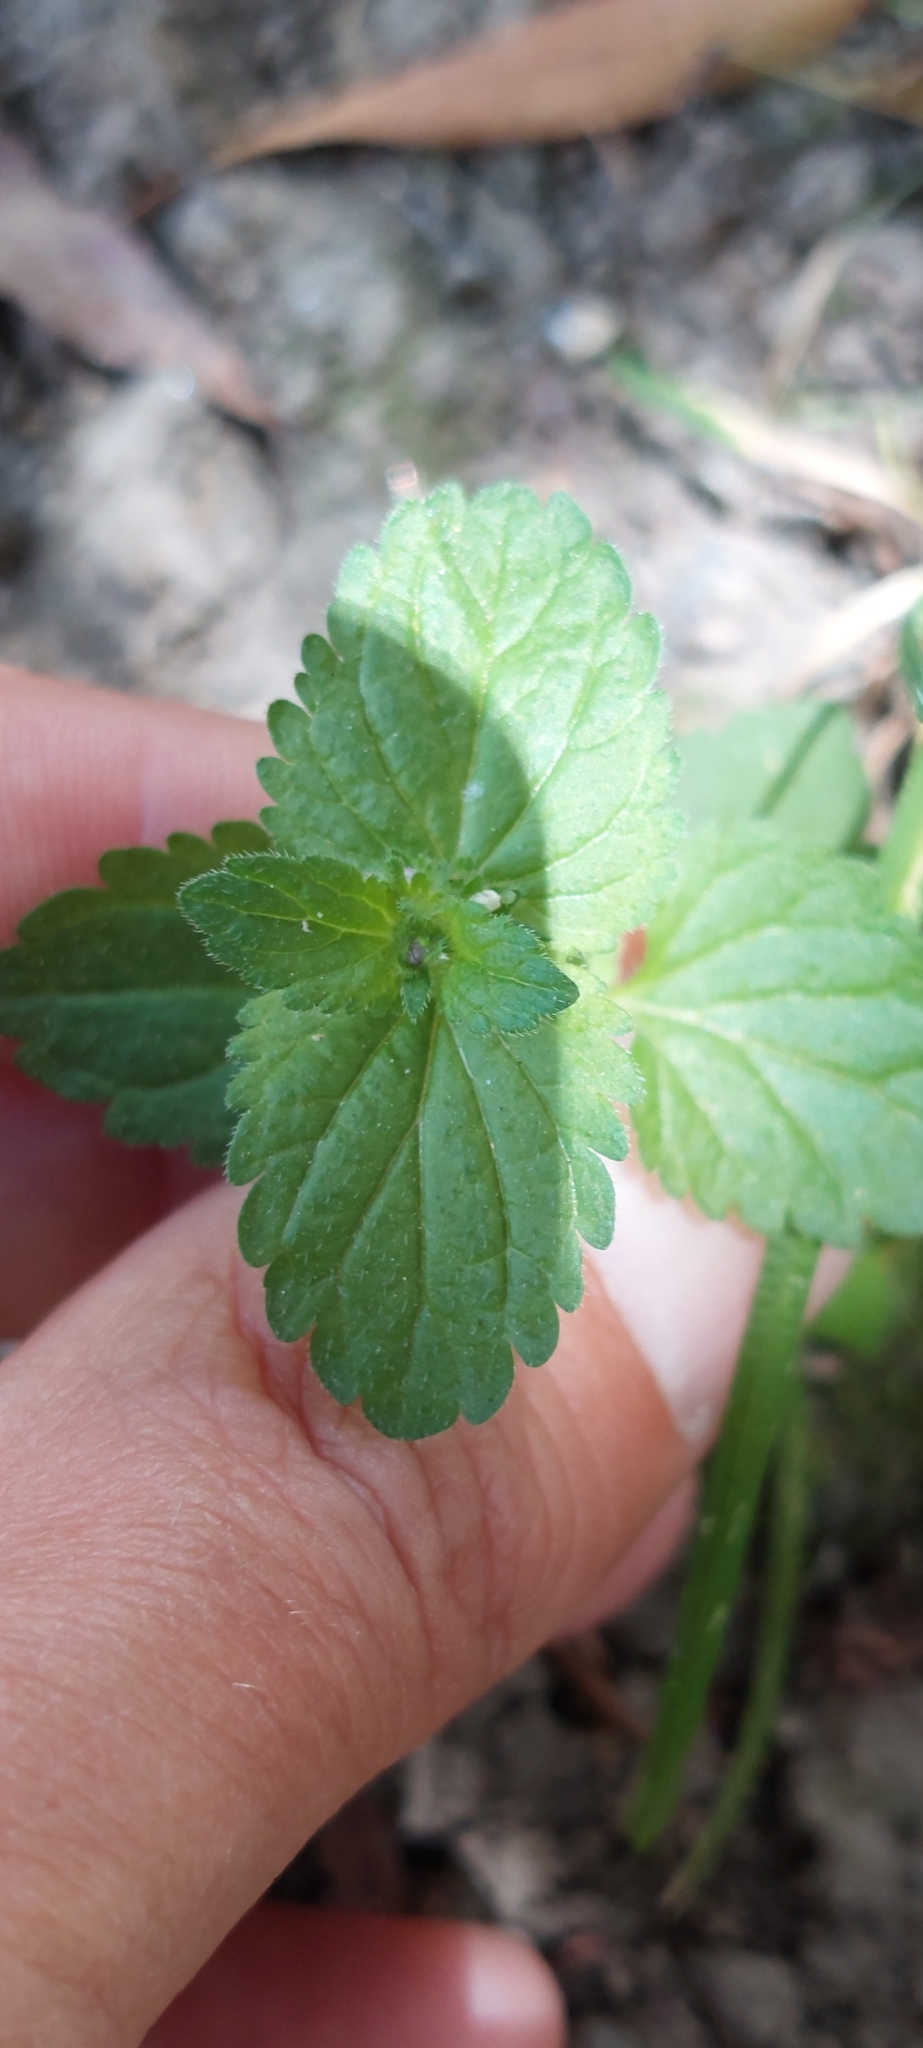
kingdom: Plantae
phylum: Tracheophyta
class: Magnoliopsida
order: Lamiales
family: Plantaginaceae
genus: Veronica
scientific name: Veronica javanica
